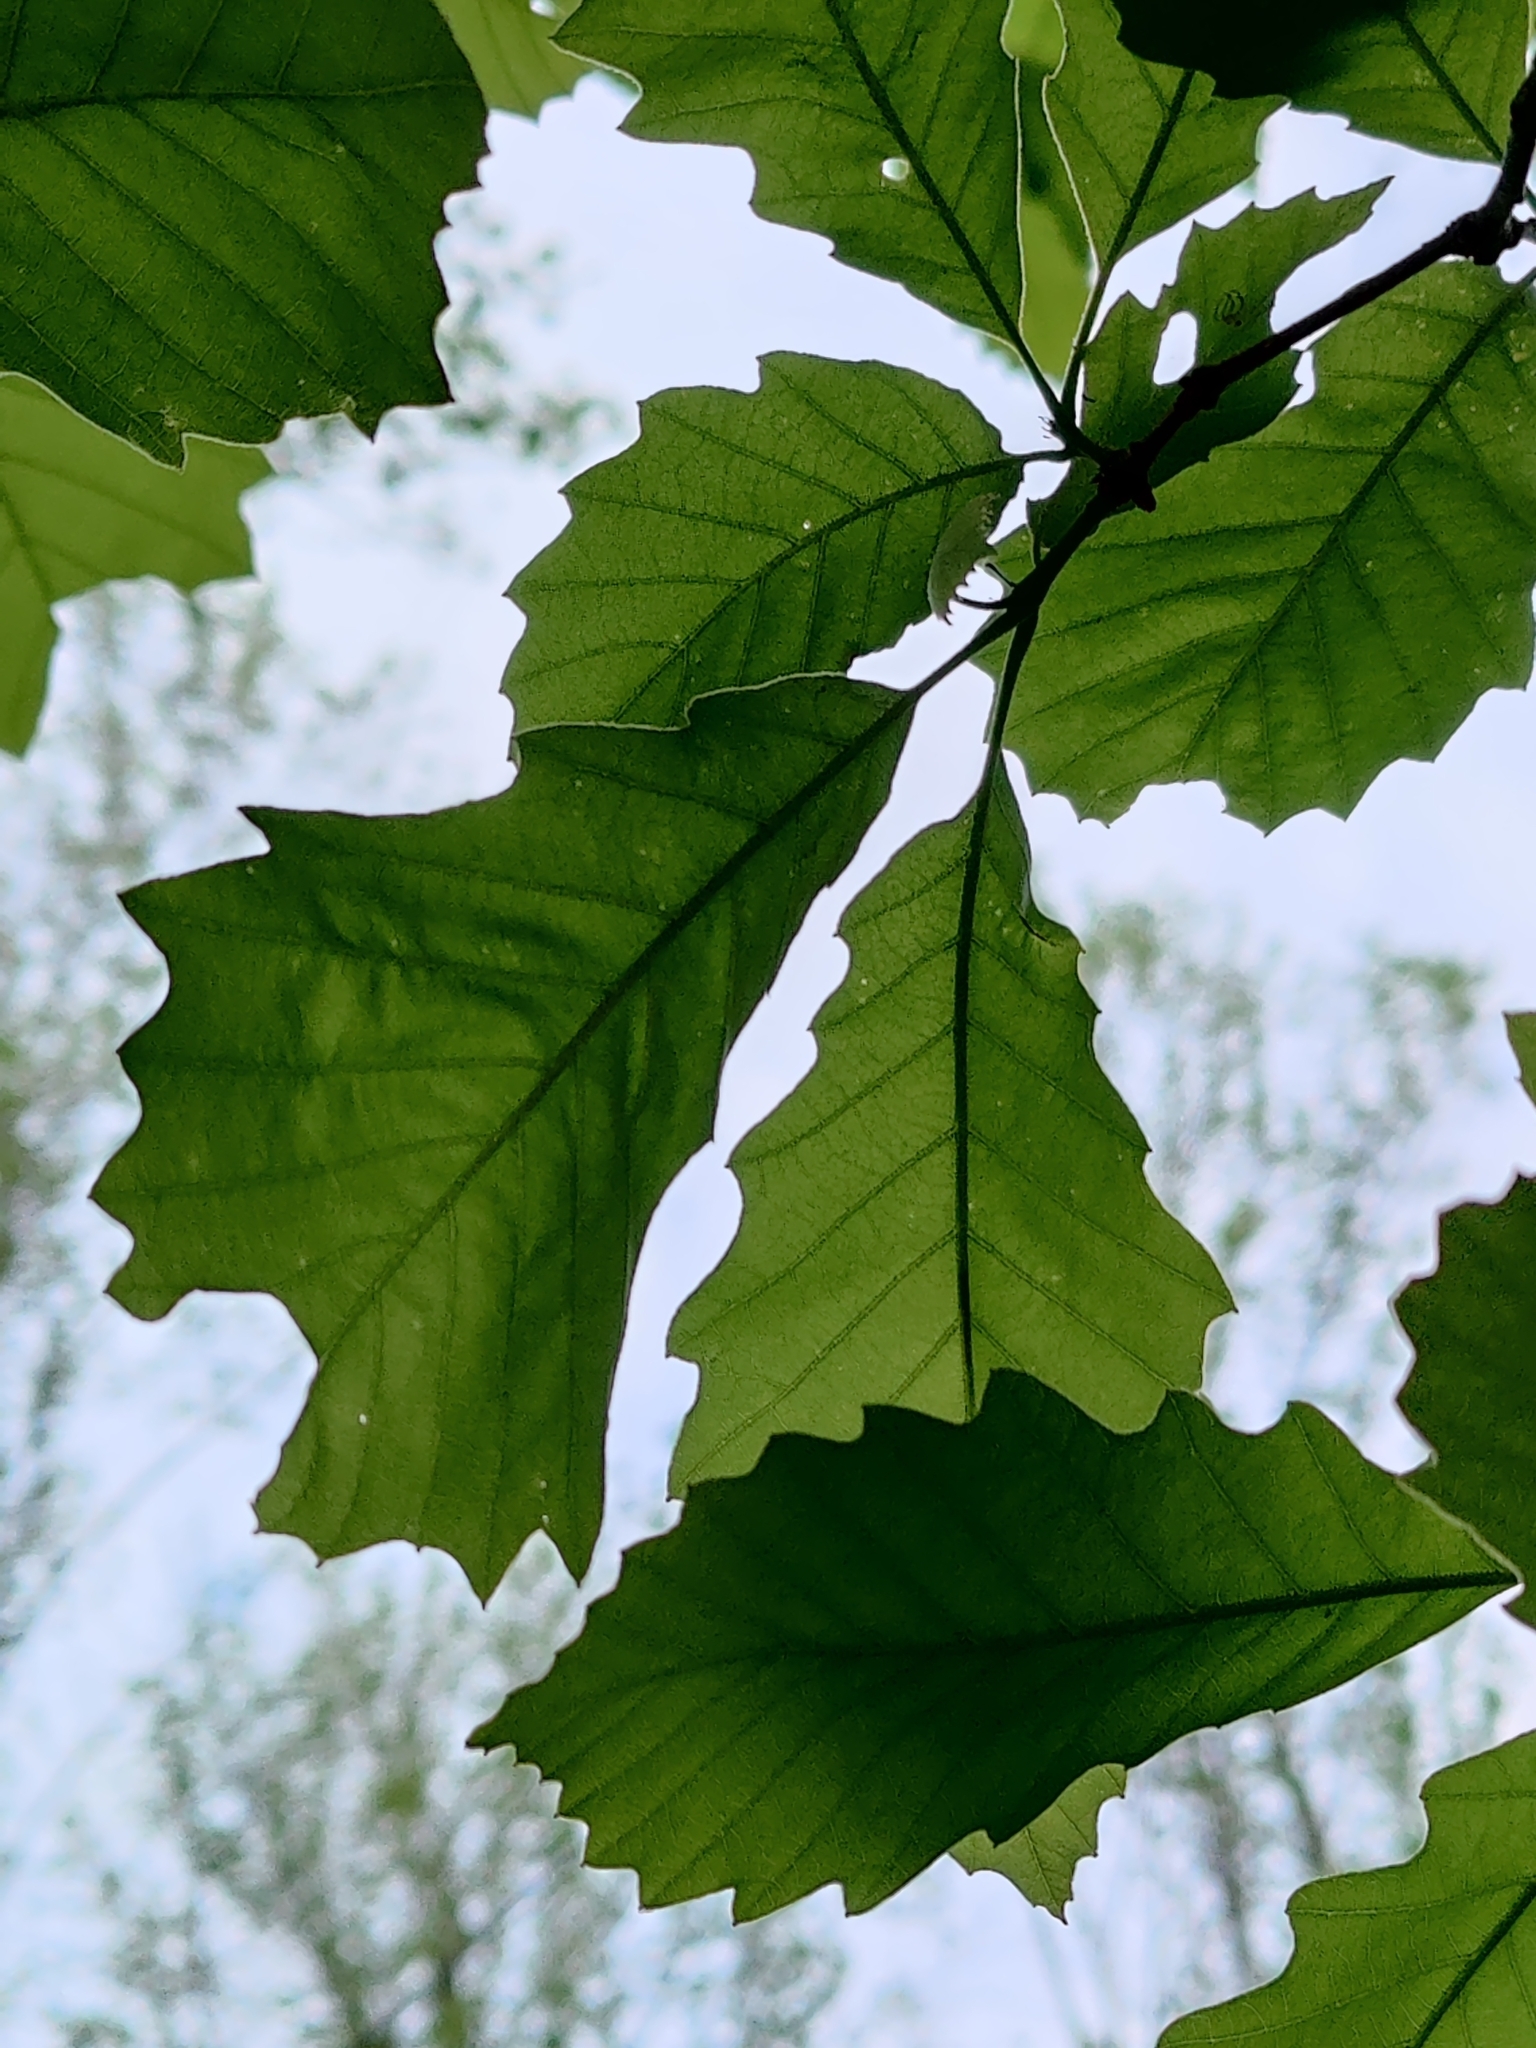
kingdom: Plantae
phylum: Tracheophyta
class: Magnoliopsida
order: Fagales
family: Fagaceae
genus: Quercus
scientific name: Quercus muehlenbergii
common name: Chinkapin oak
